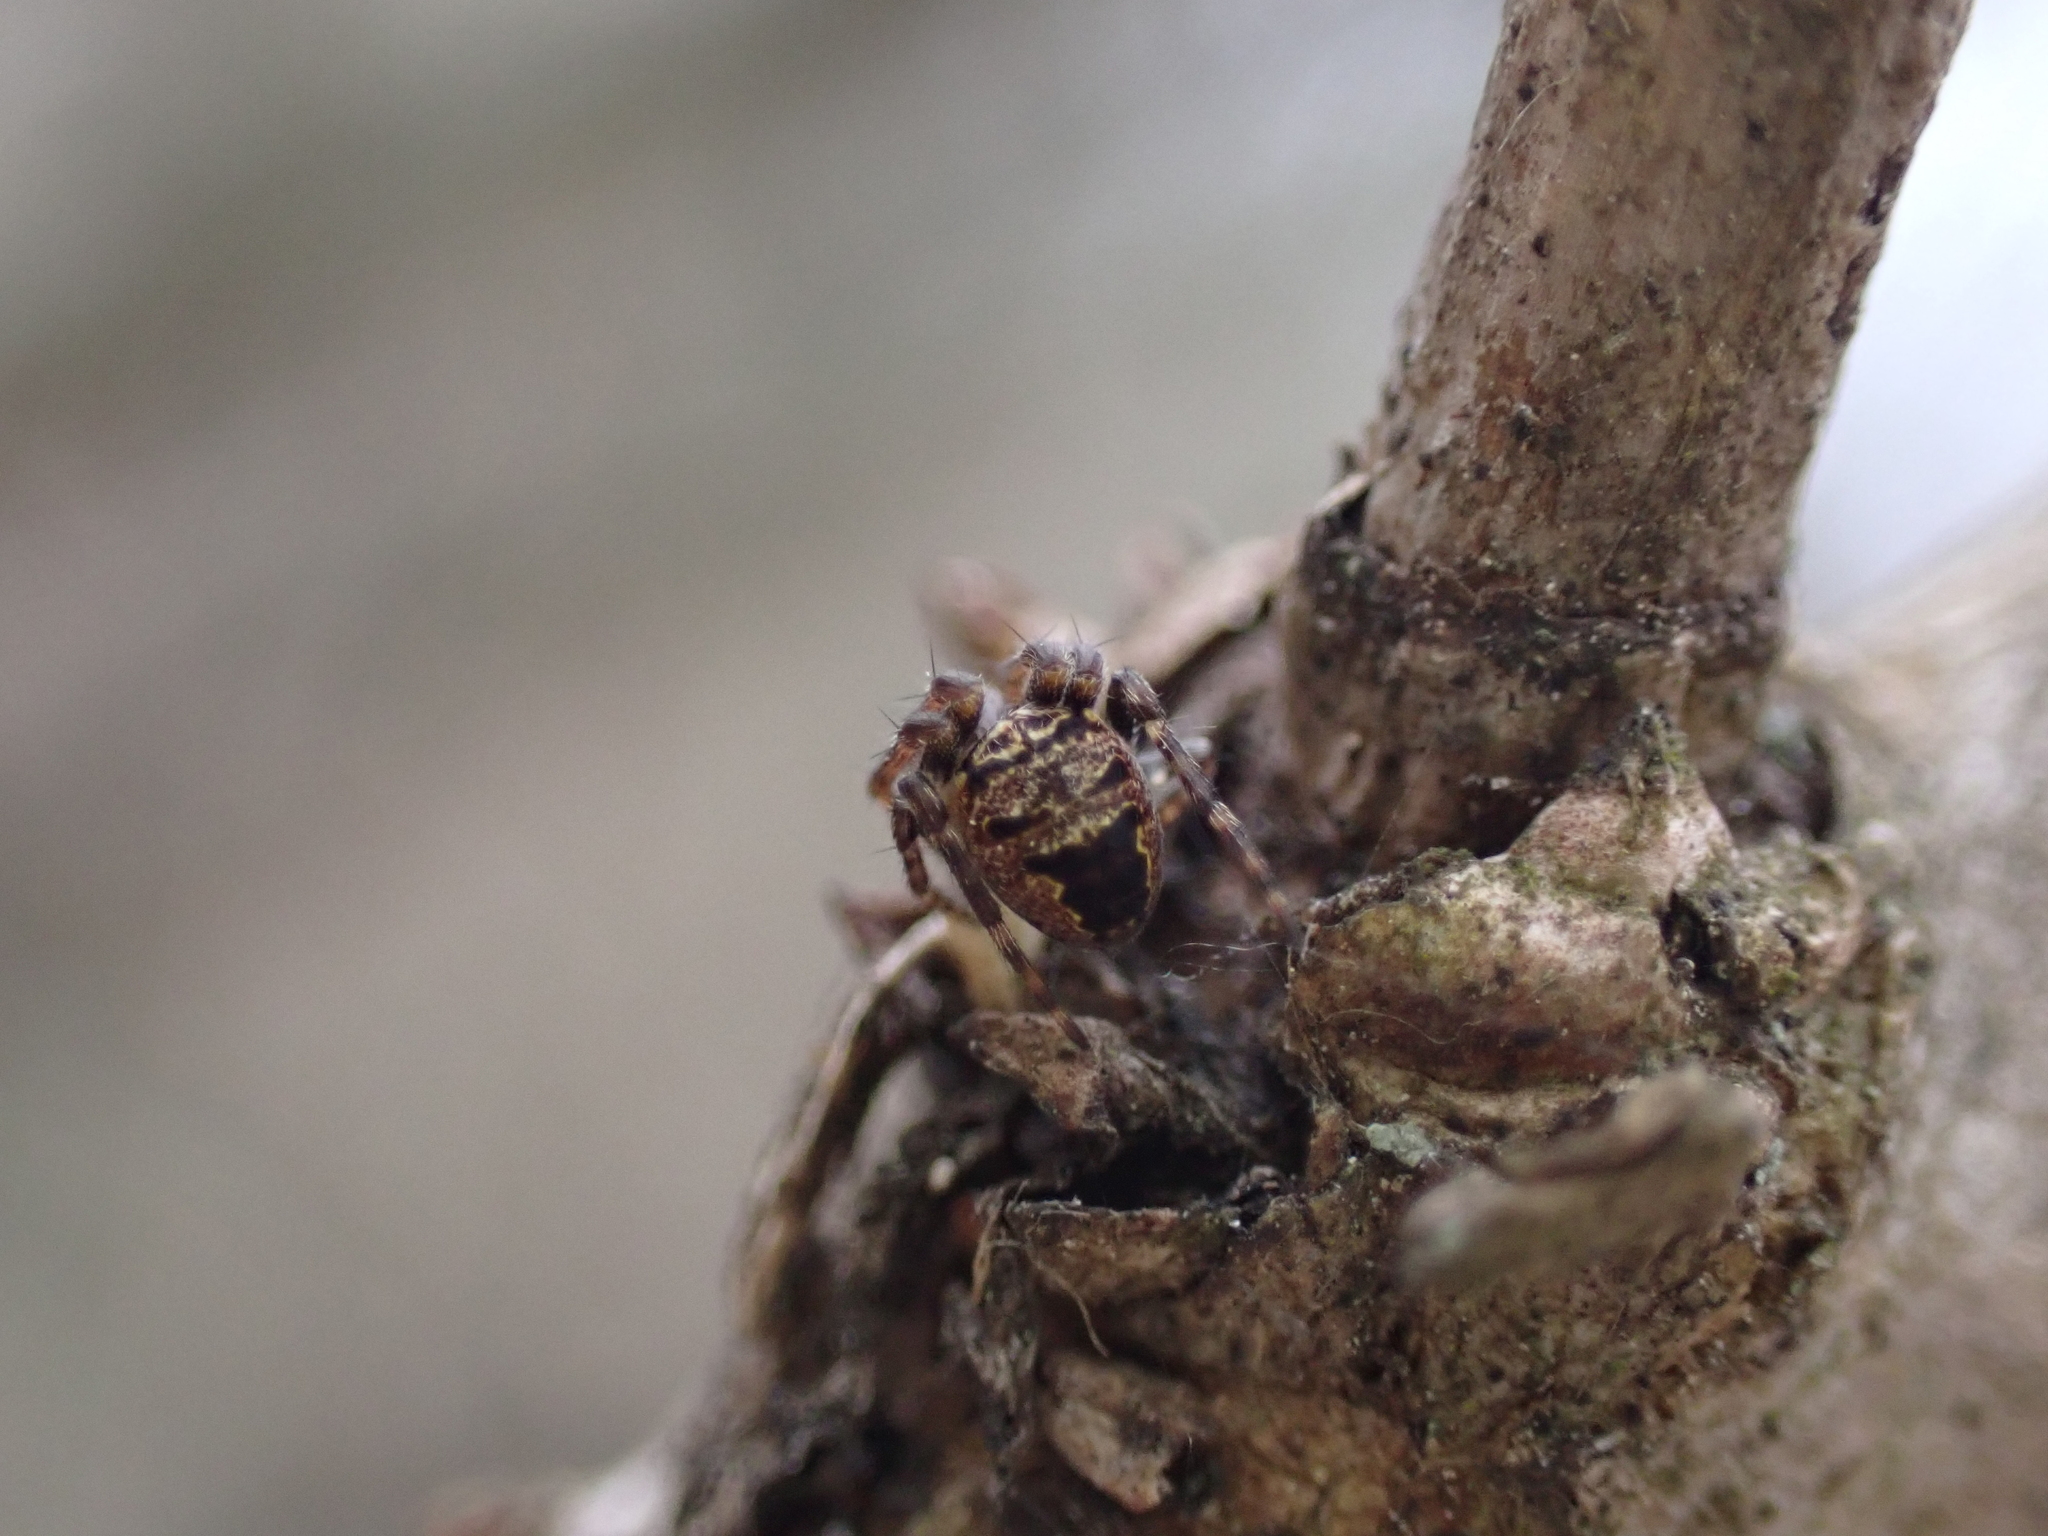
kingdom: Animalia
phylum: Arthropoda
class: Arachnida
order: Araneae
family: Araneidae
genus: Zilla
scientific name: Zilla diodia
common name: Zilla diodia
